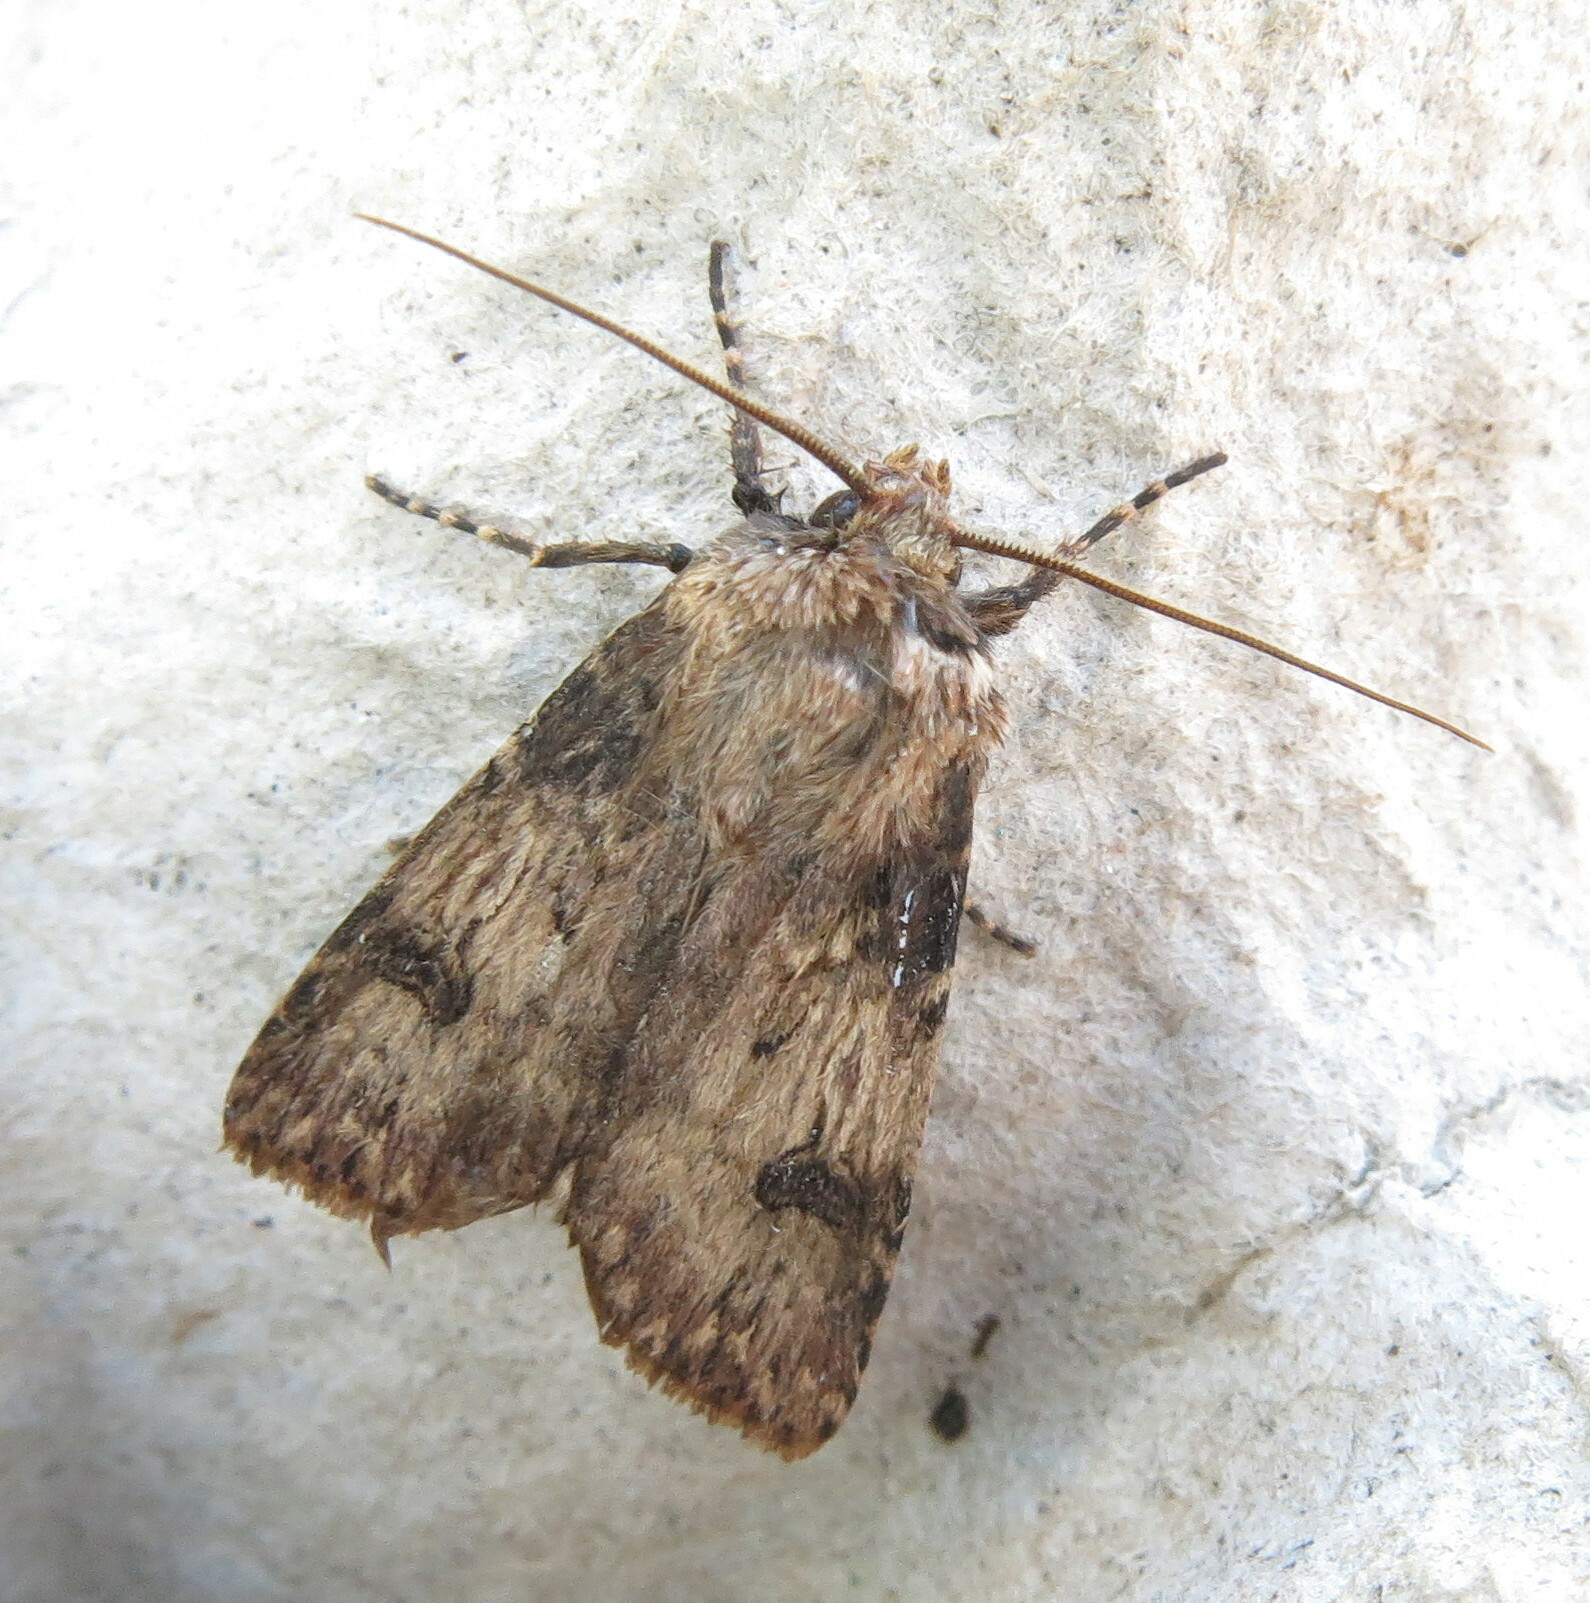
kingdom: Animalia
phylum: Arthropoda
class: Insecta
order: Lepidoptera
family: Noctuidae
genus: Agrotis
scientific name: Agrotis puta
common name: Shuttle-shaped dart
